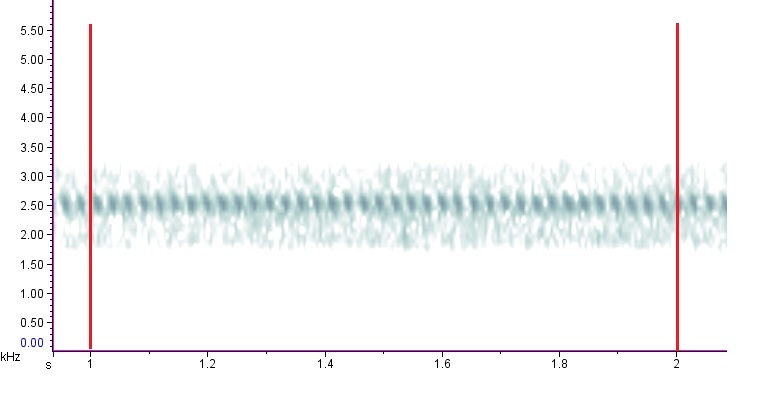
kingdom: Animalia
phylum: Arthropoda
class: Insecta
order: Orthoptera
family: Gryllidae
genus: Oecanthus
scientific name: Oecanthus latipennis
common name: Broad-winged tree cricket
